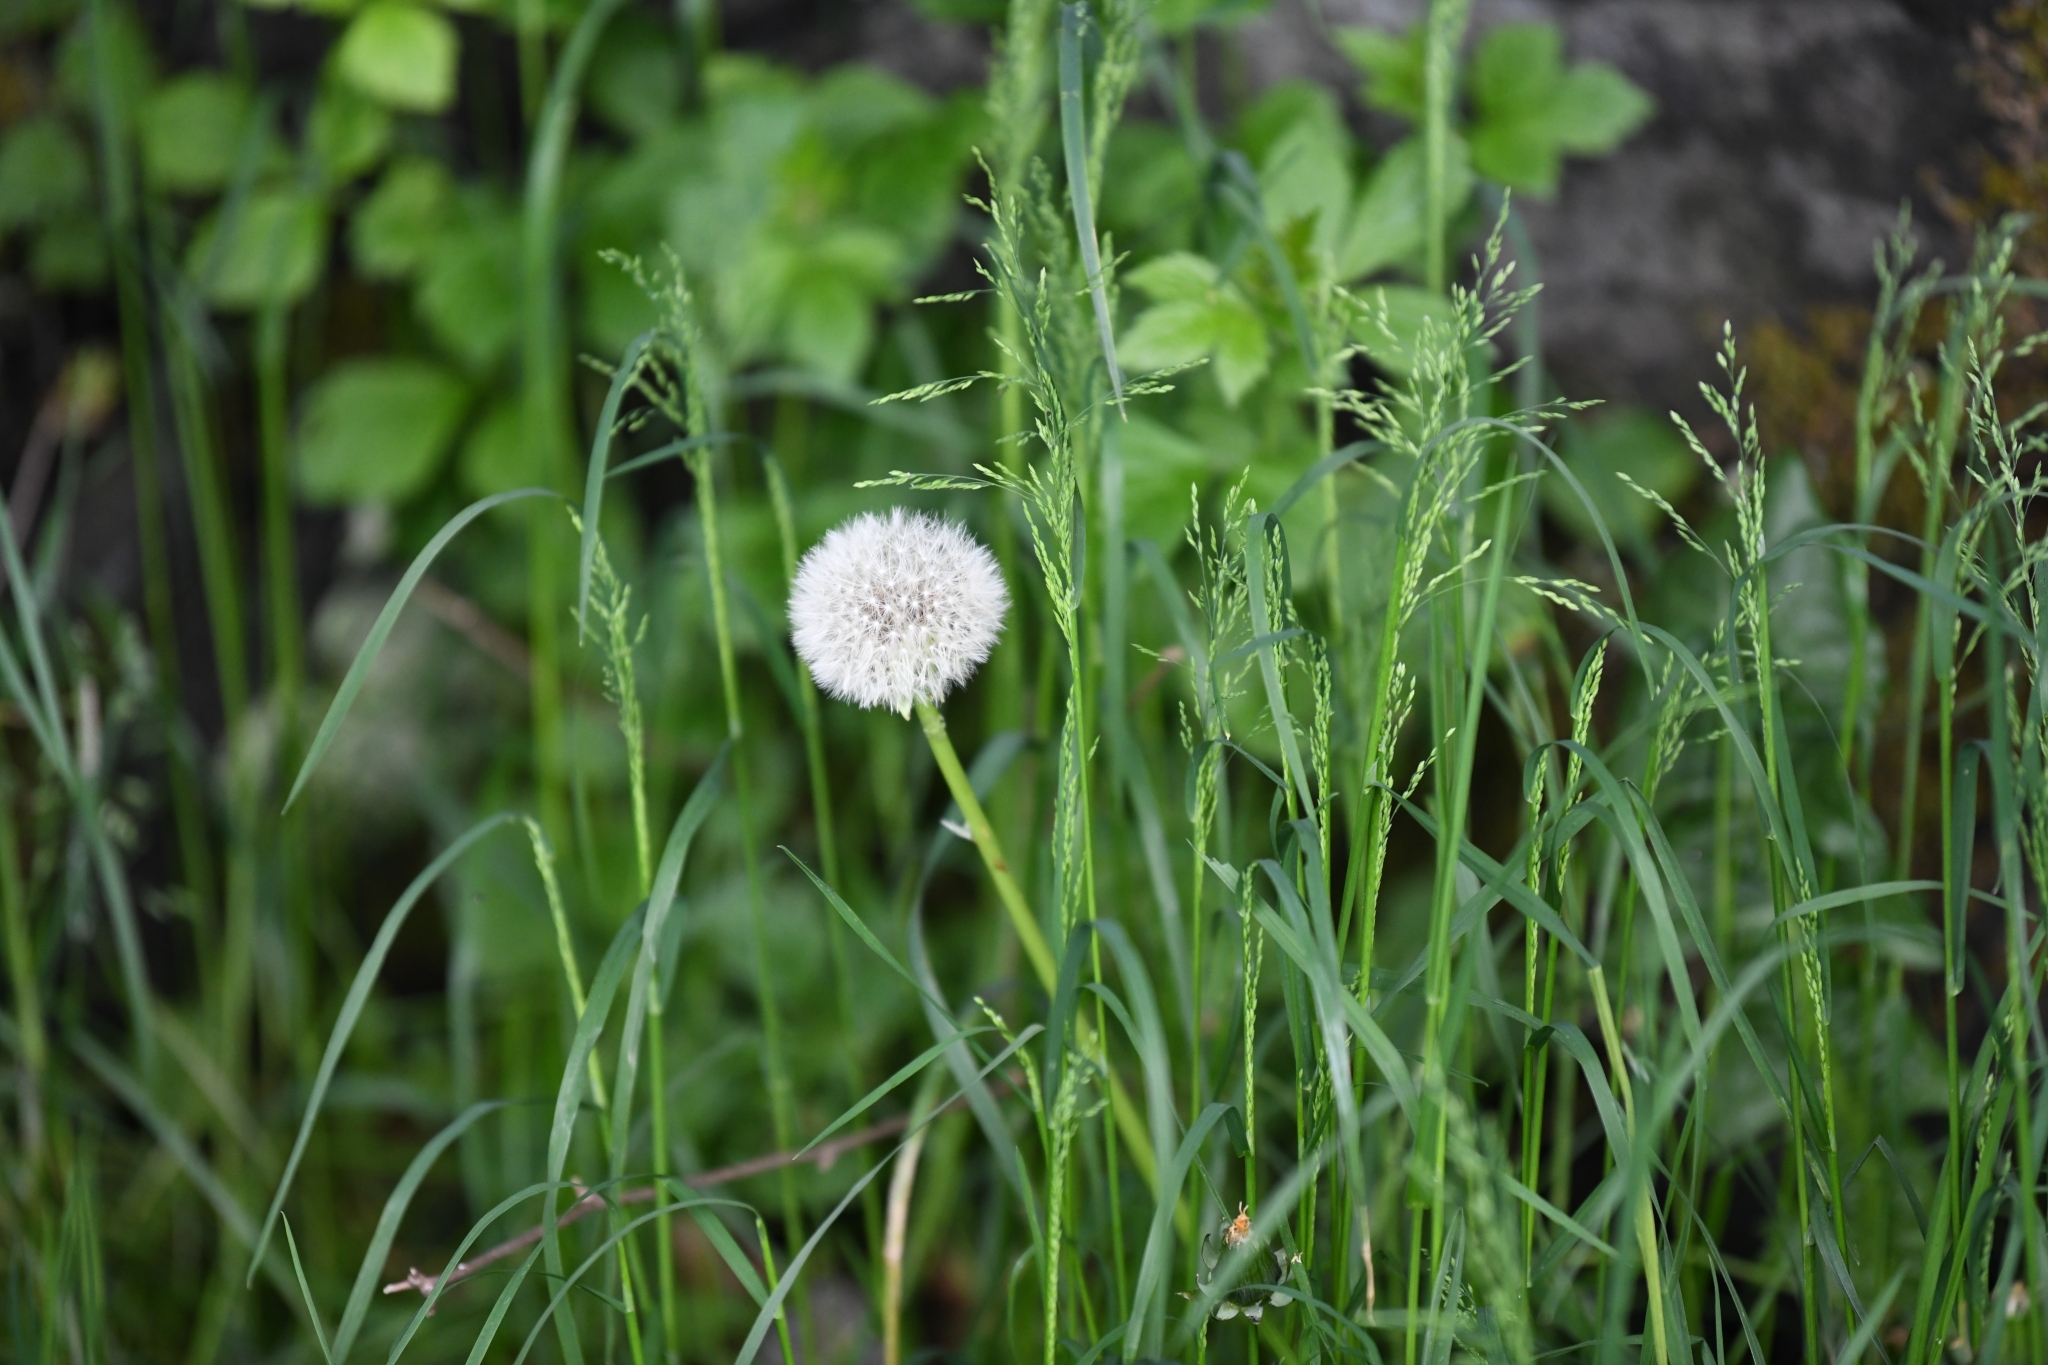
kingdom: Plantae
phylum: Tracheophyta
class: Magnoliopsida
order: Asterales
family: Asteraceae
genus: Taraxacum
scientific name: Taraxacum officinale
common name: Common dandelion
